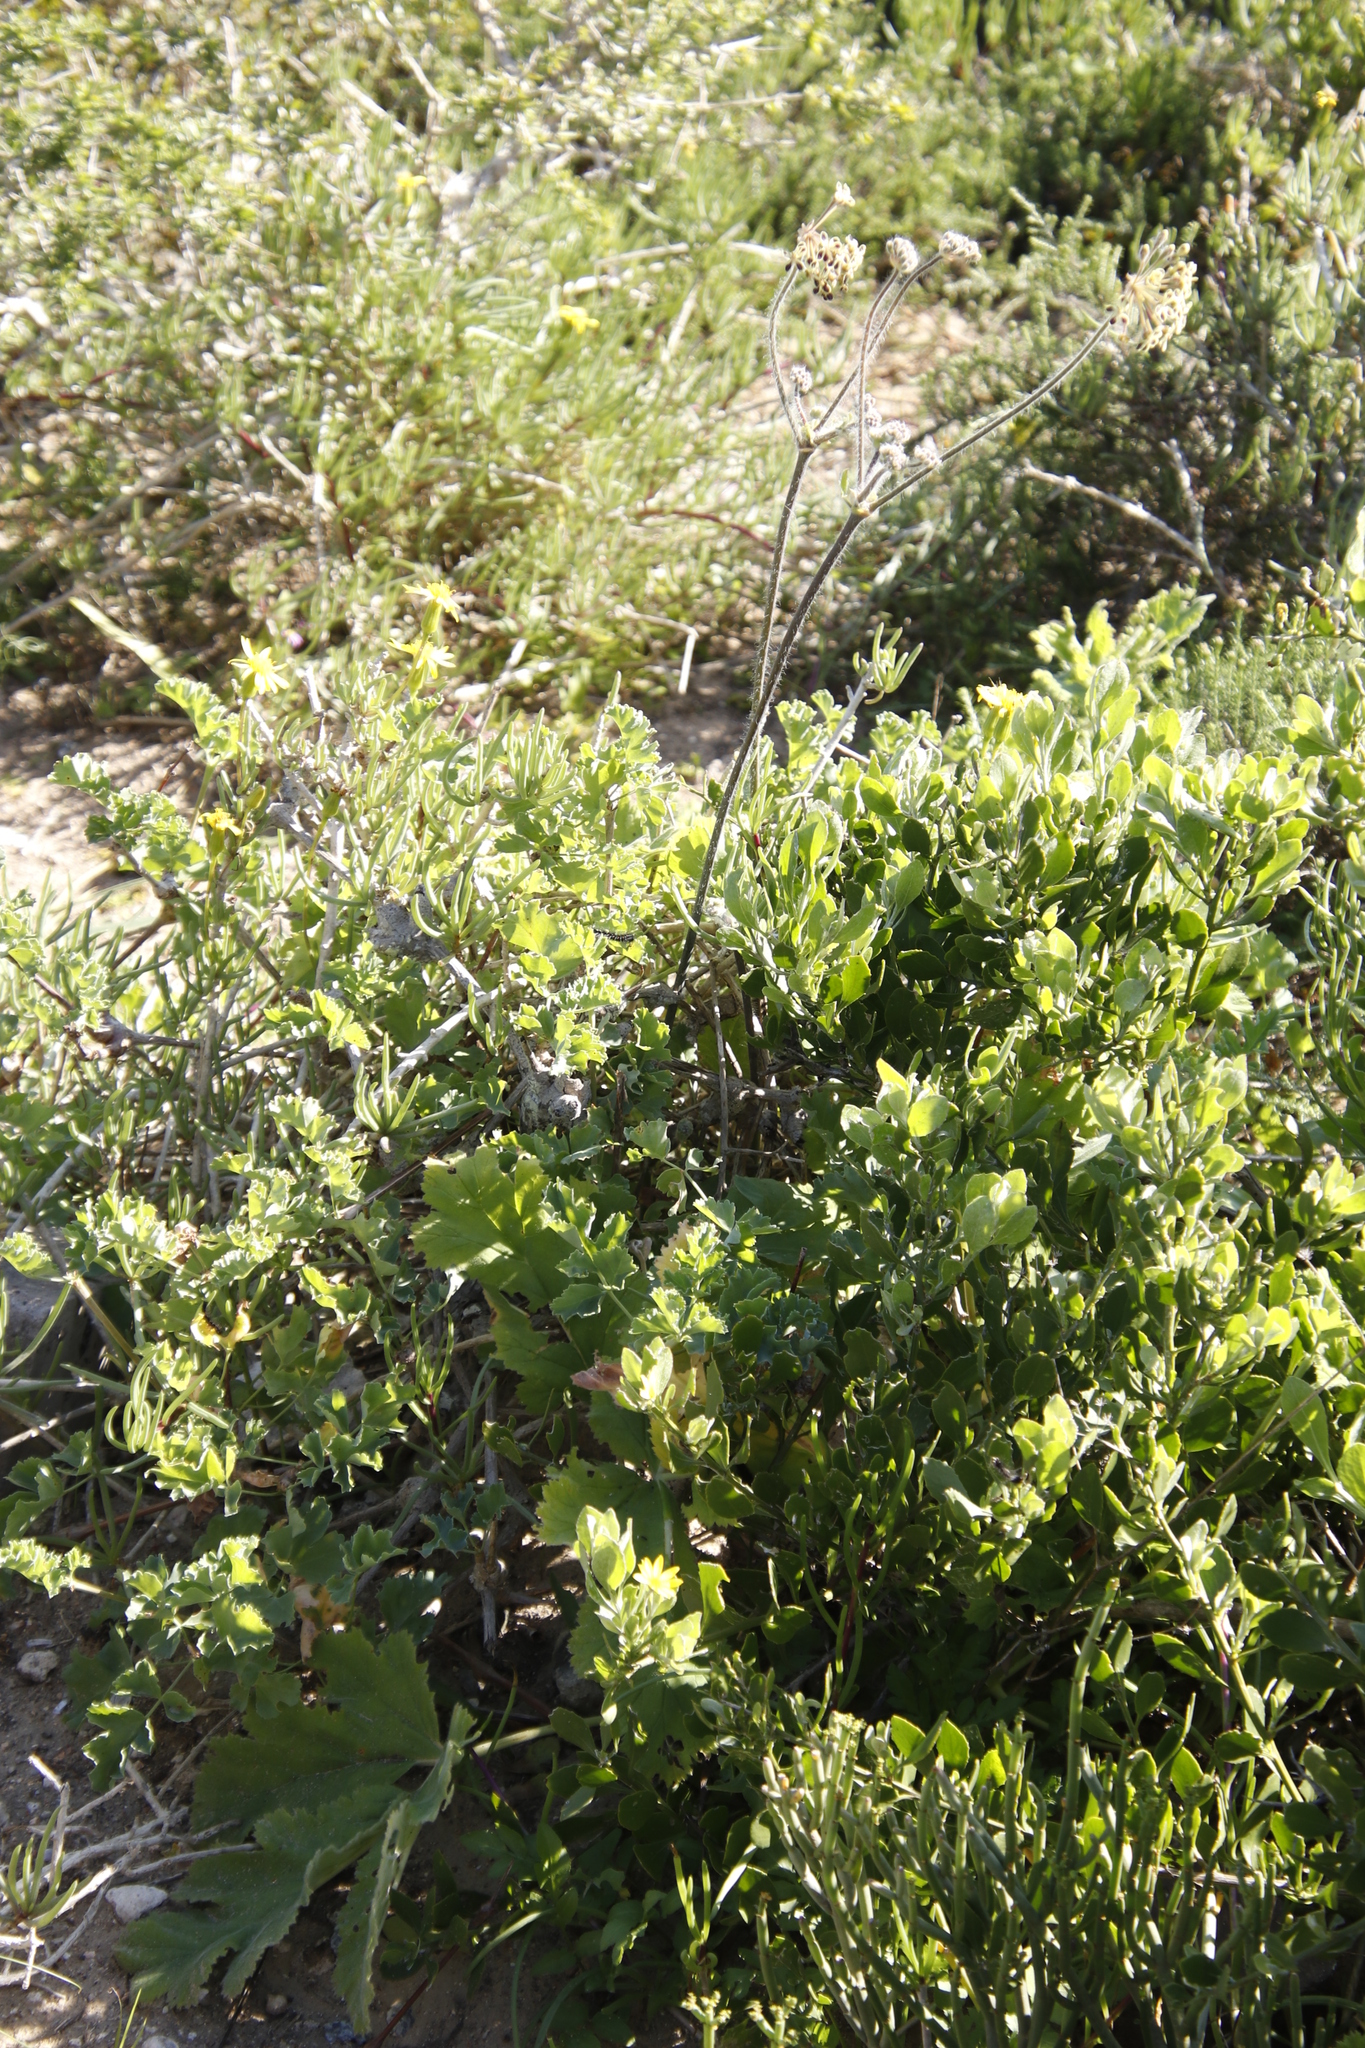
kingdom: Plantae
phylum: Tracheophyta
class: Magnoliopsida
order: Geraniales
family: Geraniaceae
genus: Pelargonium
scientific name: Pelargonium gibbosum
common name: Gouty geranium
